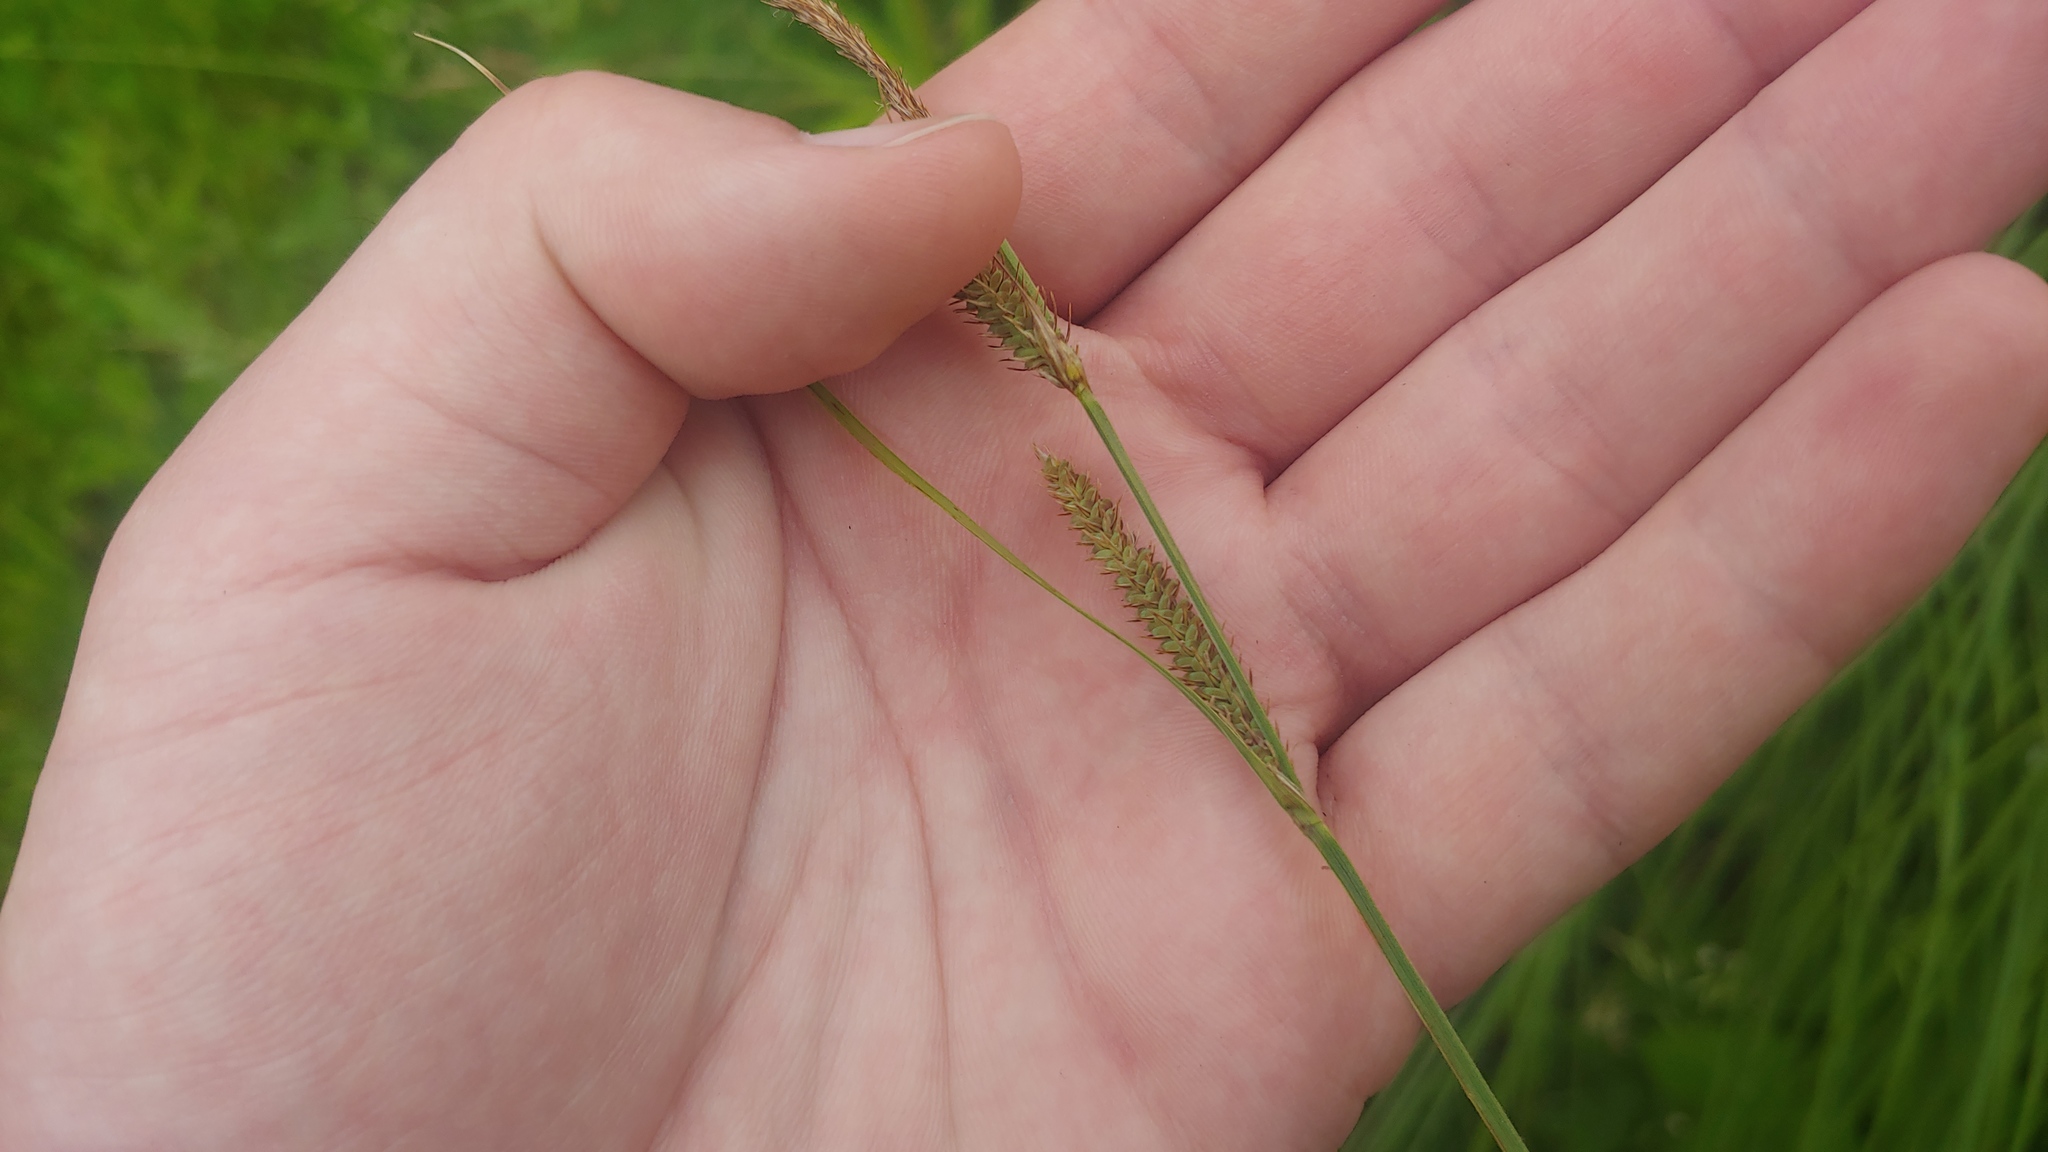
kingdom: Plantae
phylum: Tracheophyta
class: Liliopsida
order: Poales
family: Cyperaceae
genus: Carex
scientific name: Carex haydenii
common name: Hayden's sedge
